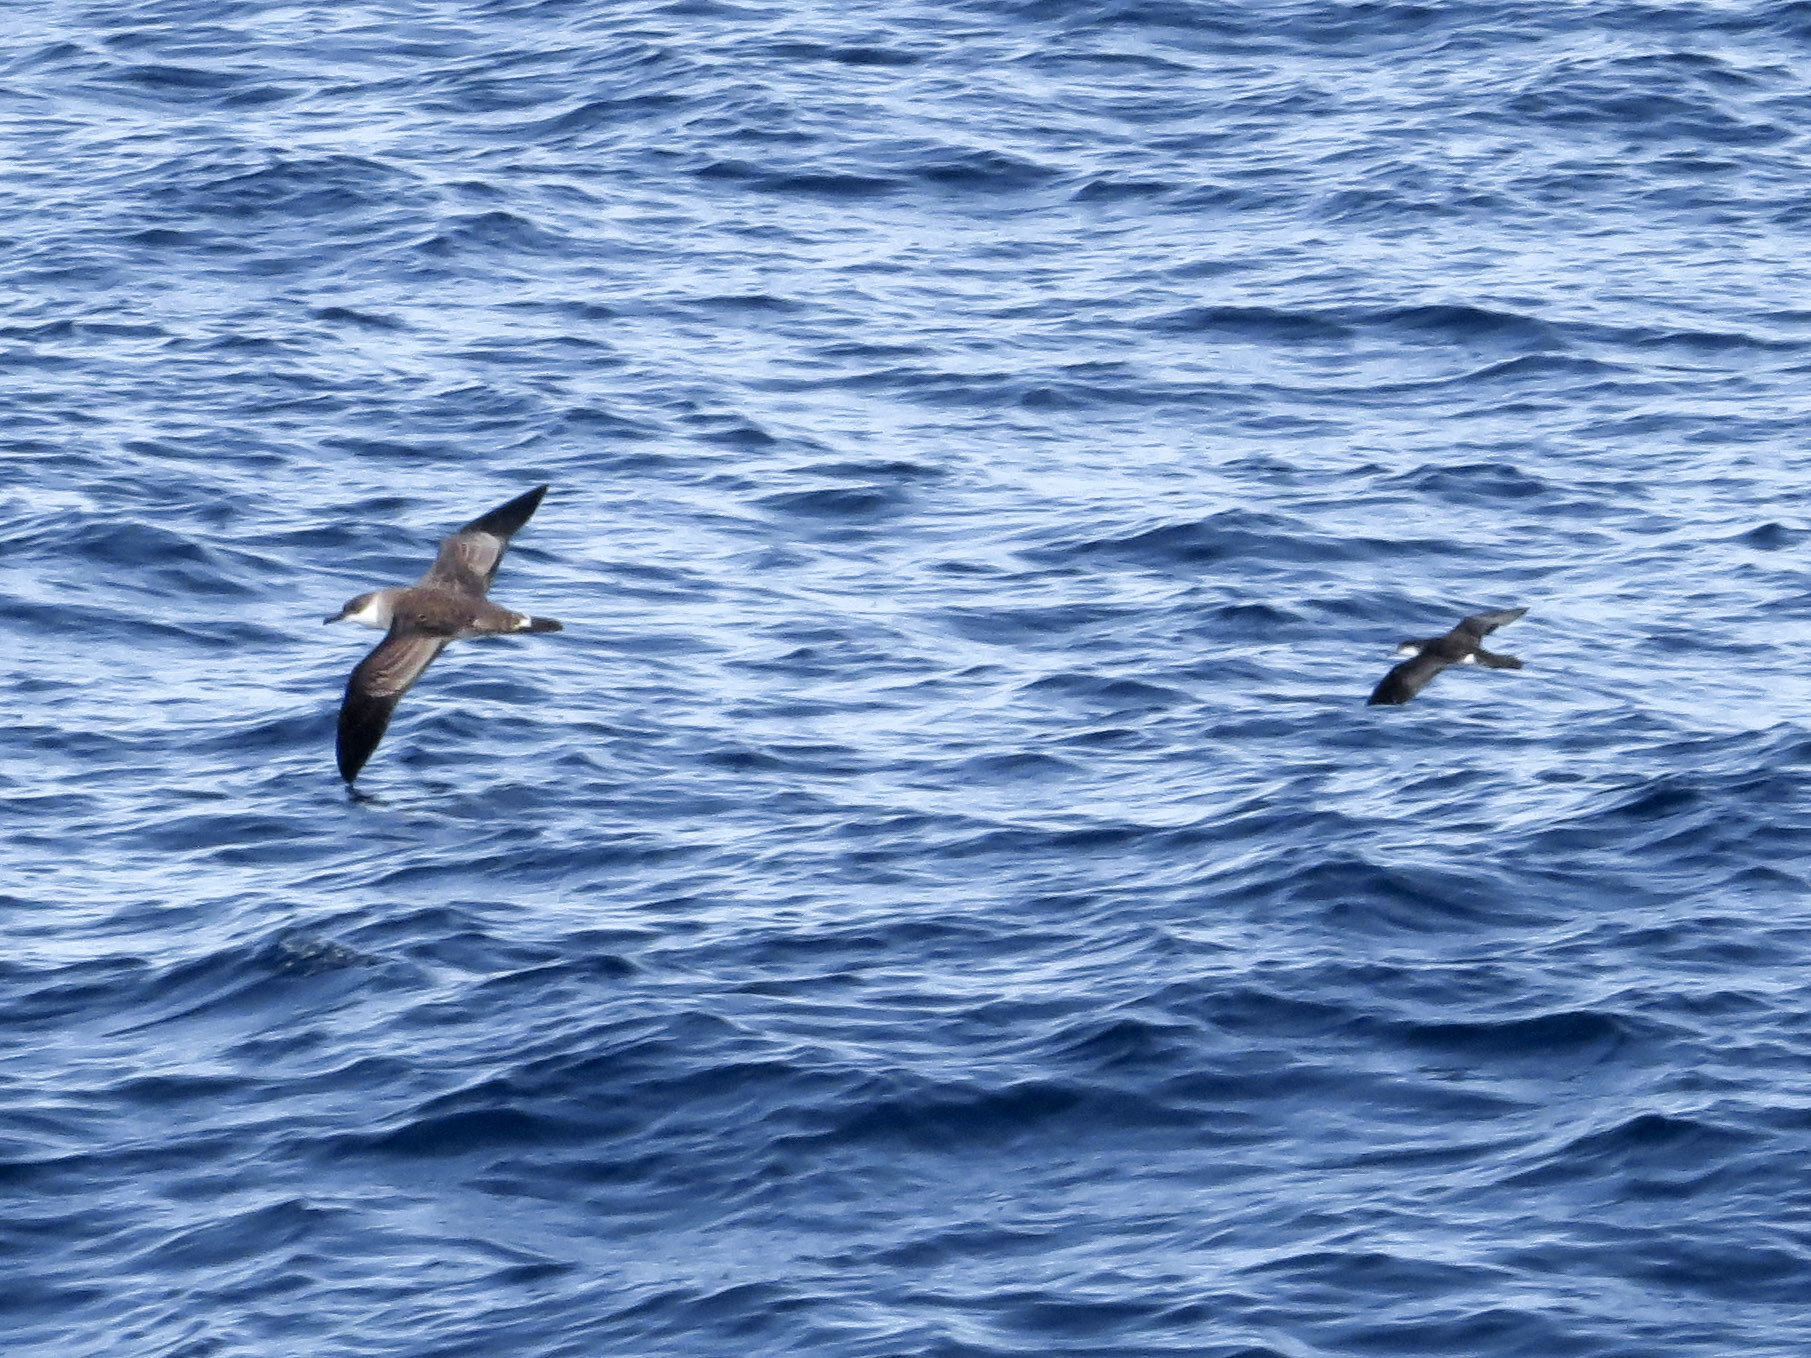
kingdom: Animalia
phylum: Chordata
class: Aves
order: Procellariiformes
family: Procellariidae
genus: Puffinus
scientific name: Puffinus lherminieri
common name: Audubon's shearwater
